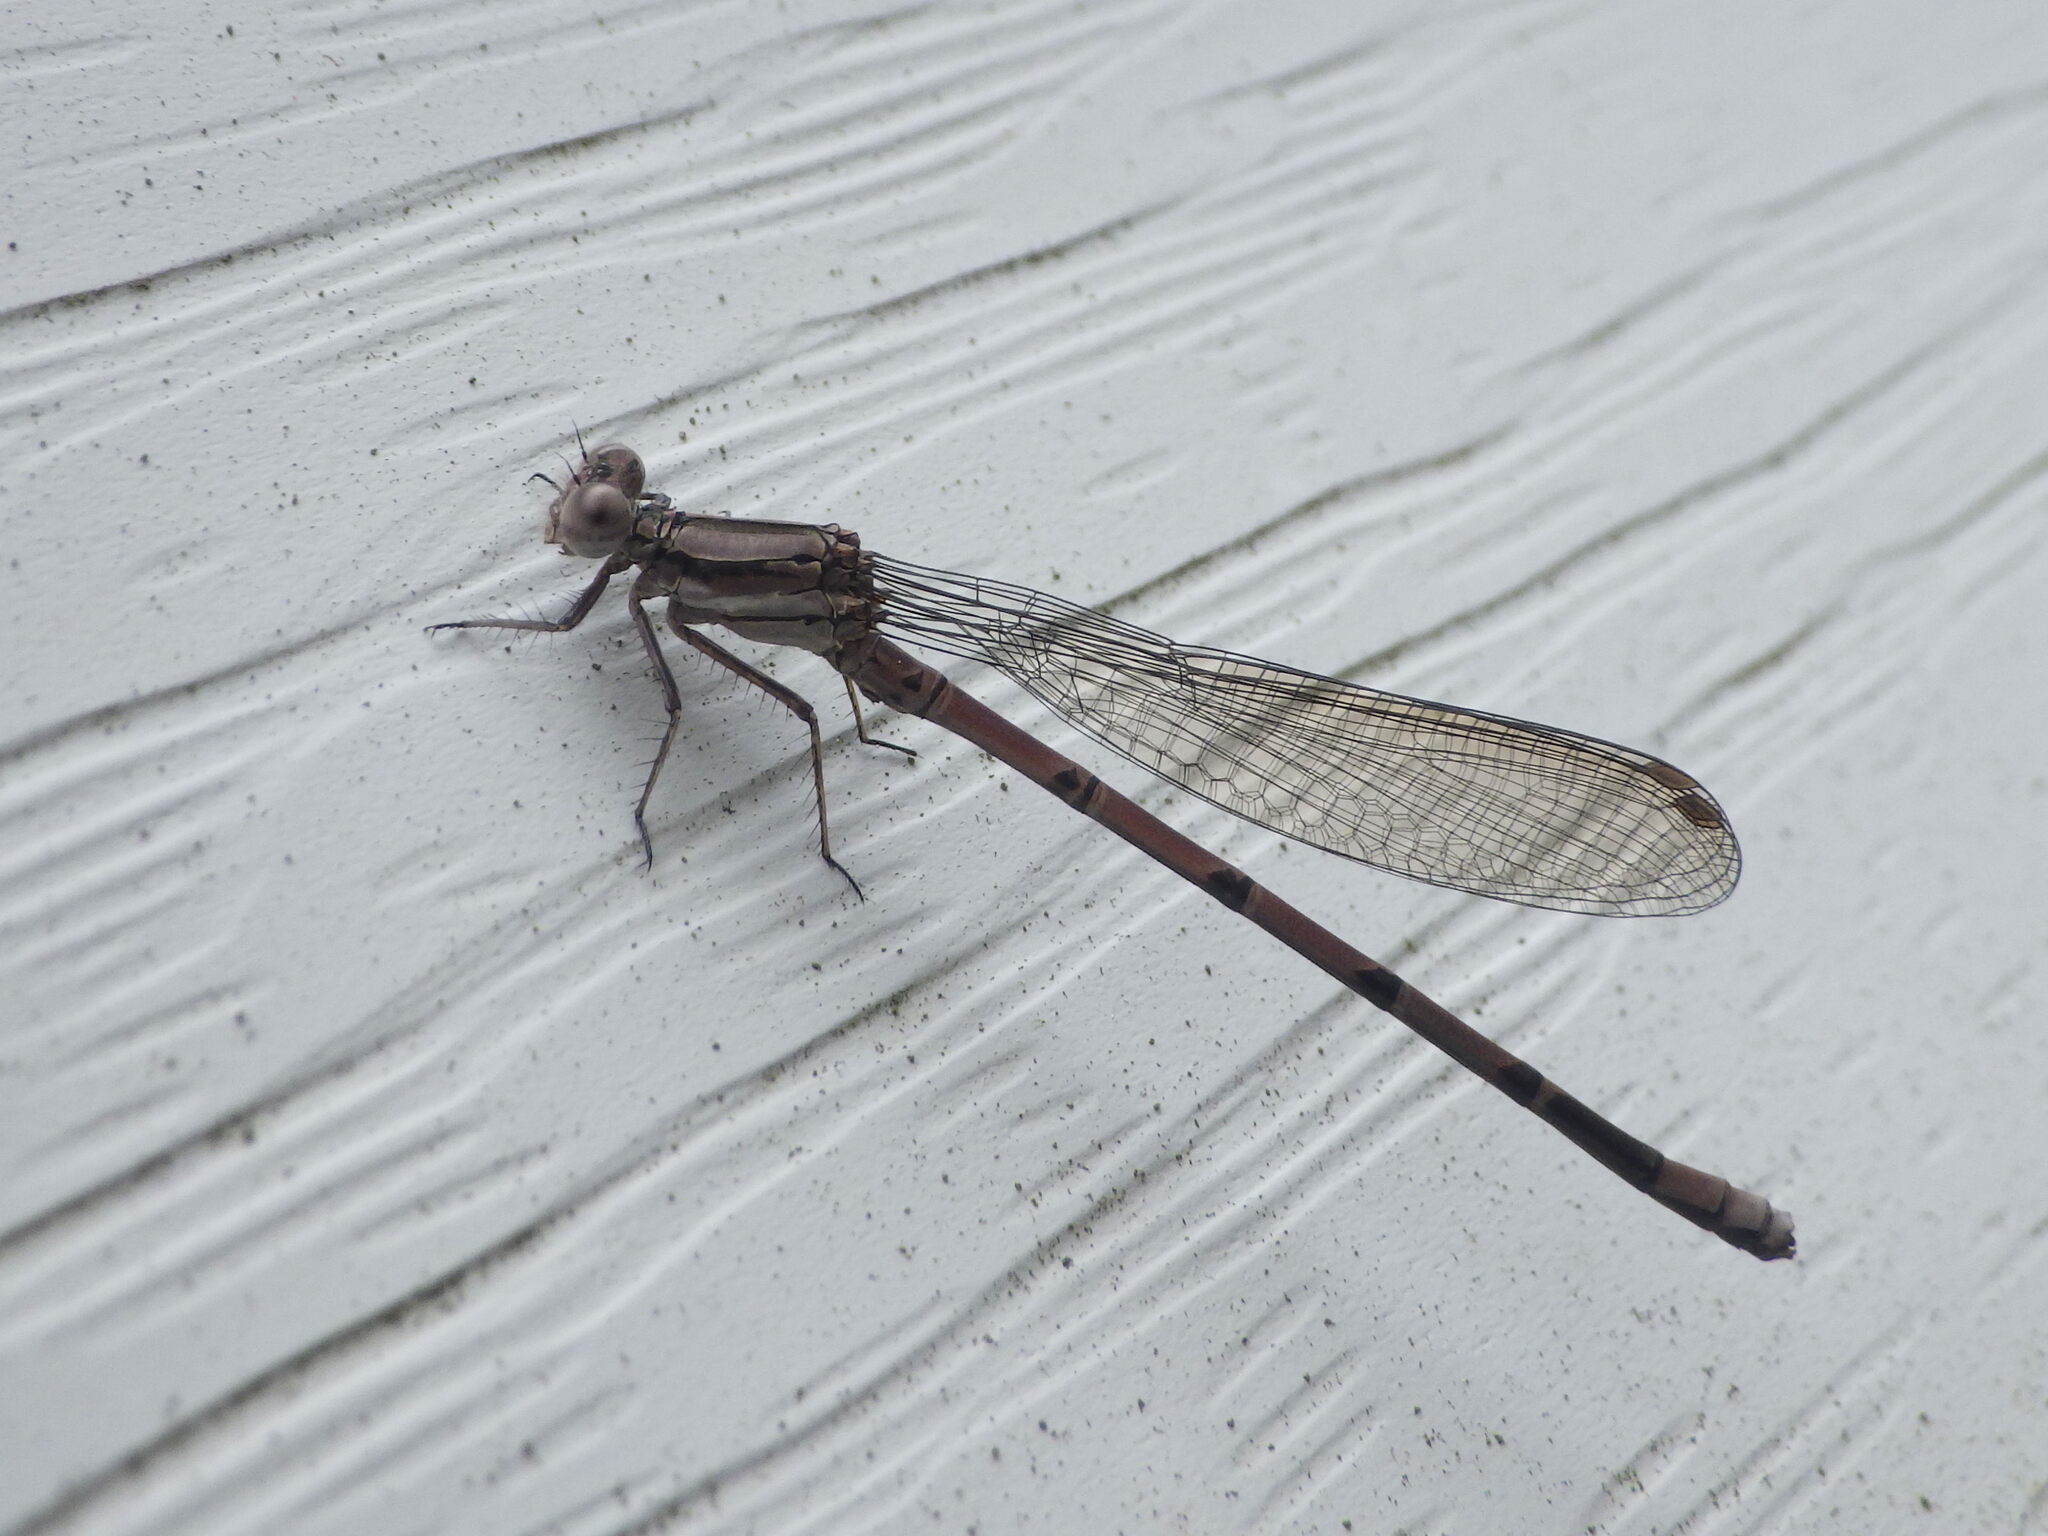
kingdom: Animalia
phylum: Arthropoda
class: Insecta
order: Odonata
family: Coenagrionidae
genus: Argia
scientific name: Argia fumipennis
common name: Variable dancer
